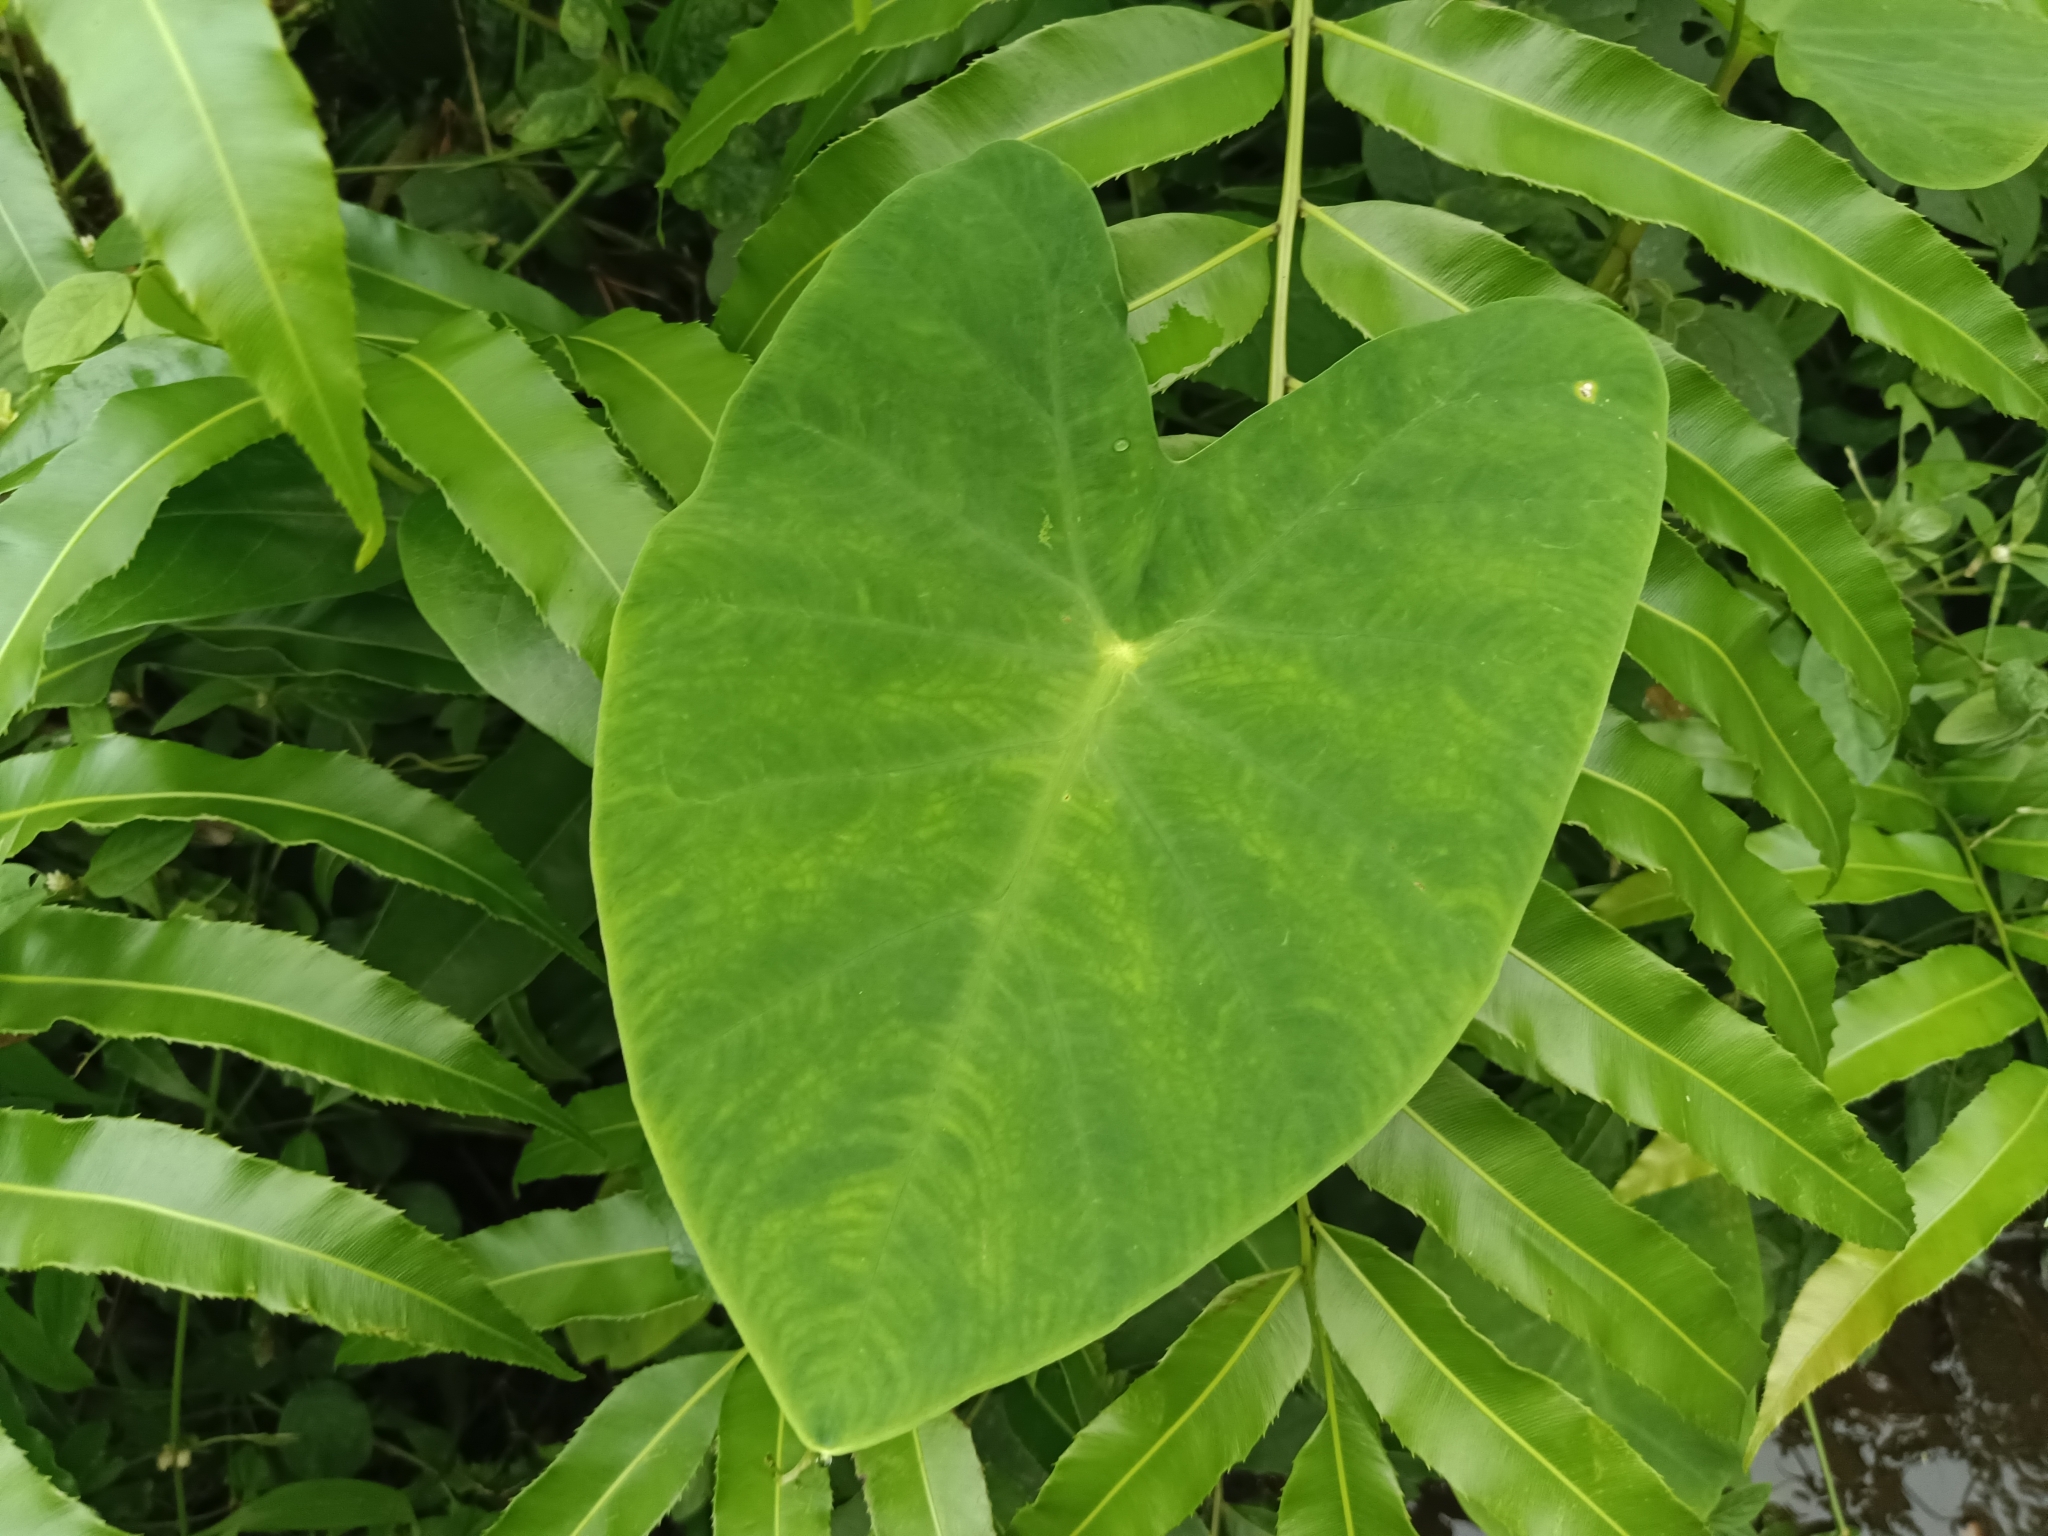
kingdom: Plantae
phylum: Tracheophyta
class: Liliopsida
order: Alismatales
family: Araceae
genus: Colocasia
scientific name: Colocasia esculenta
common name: Taro
